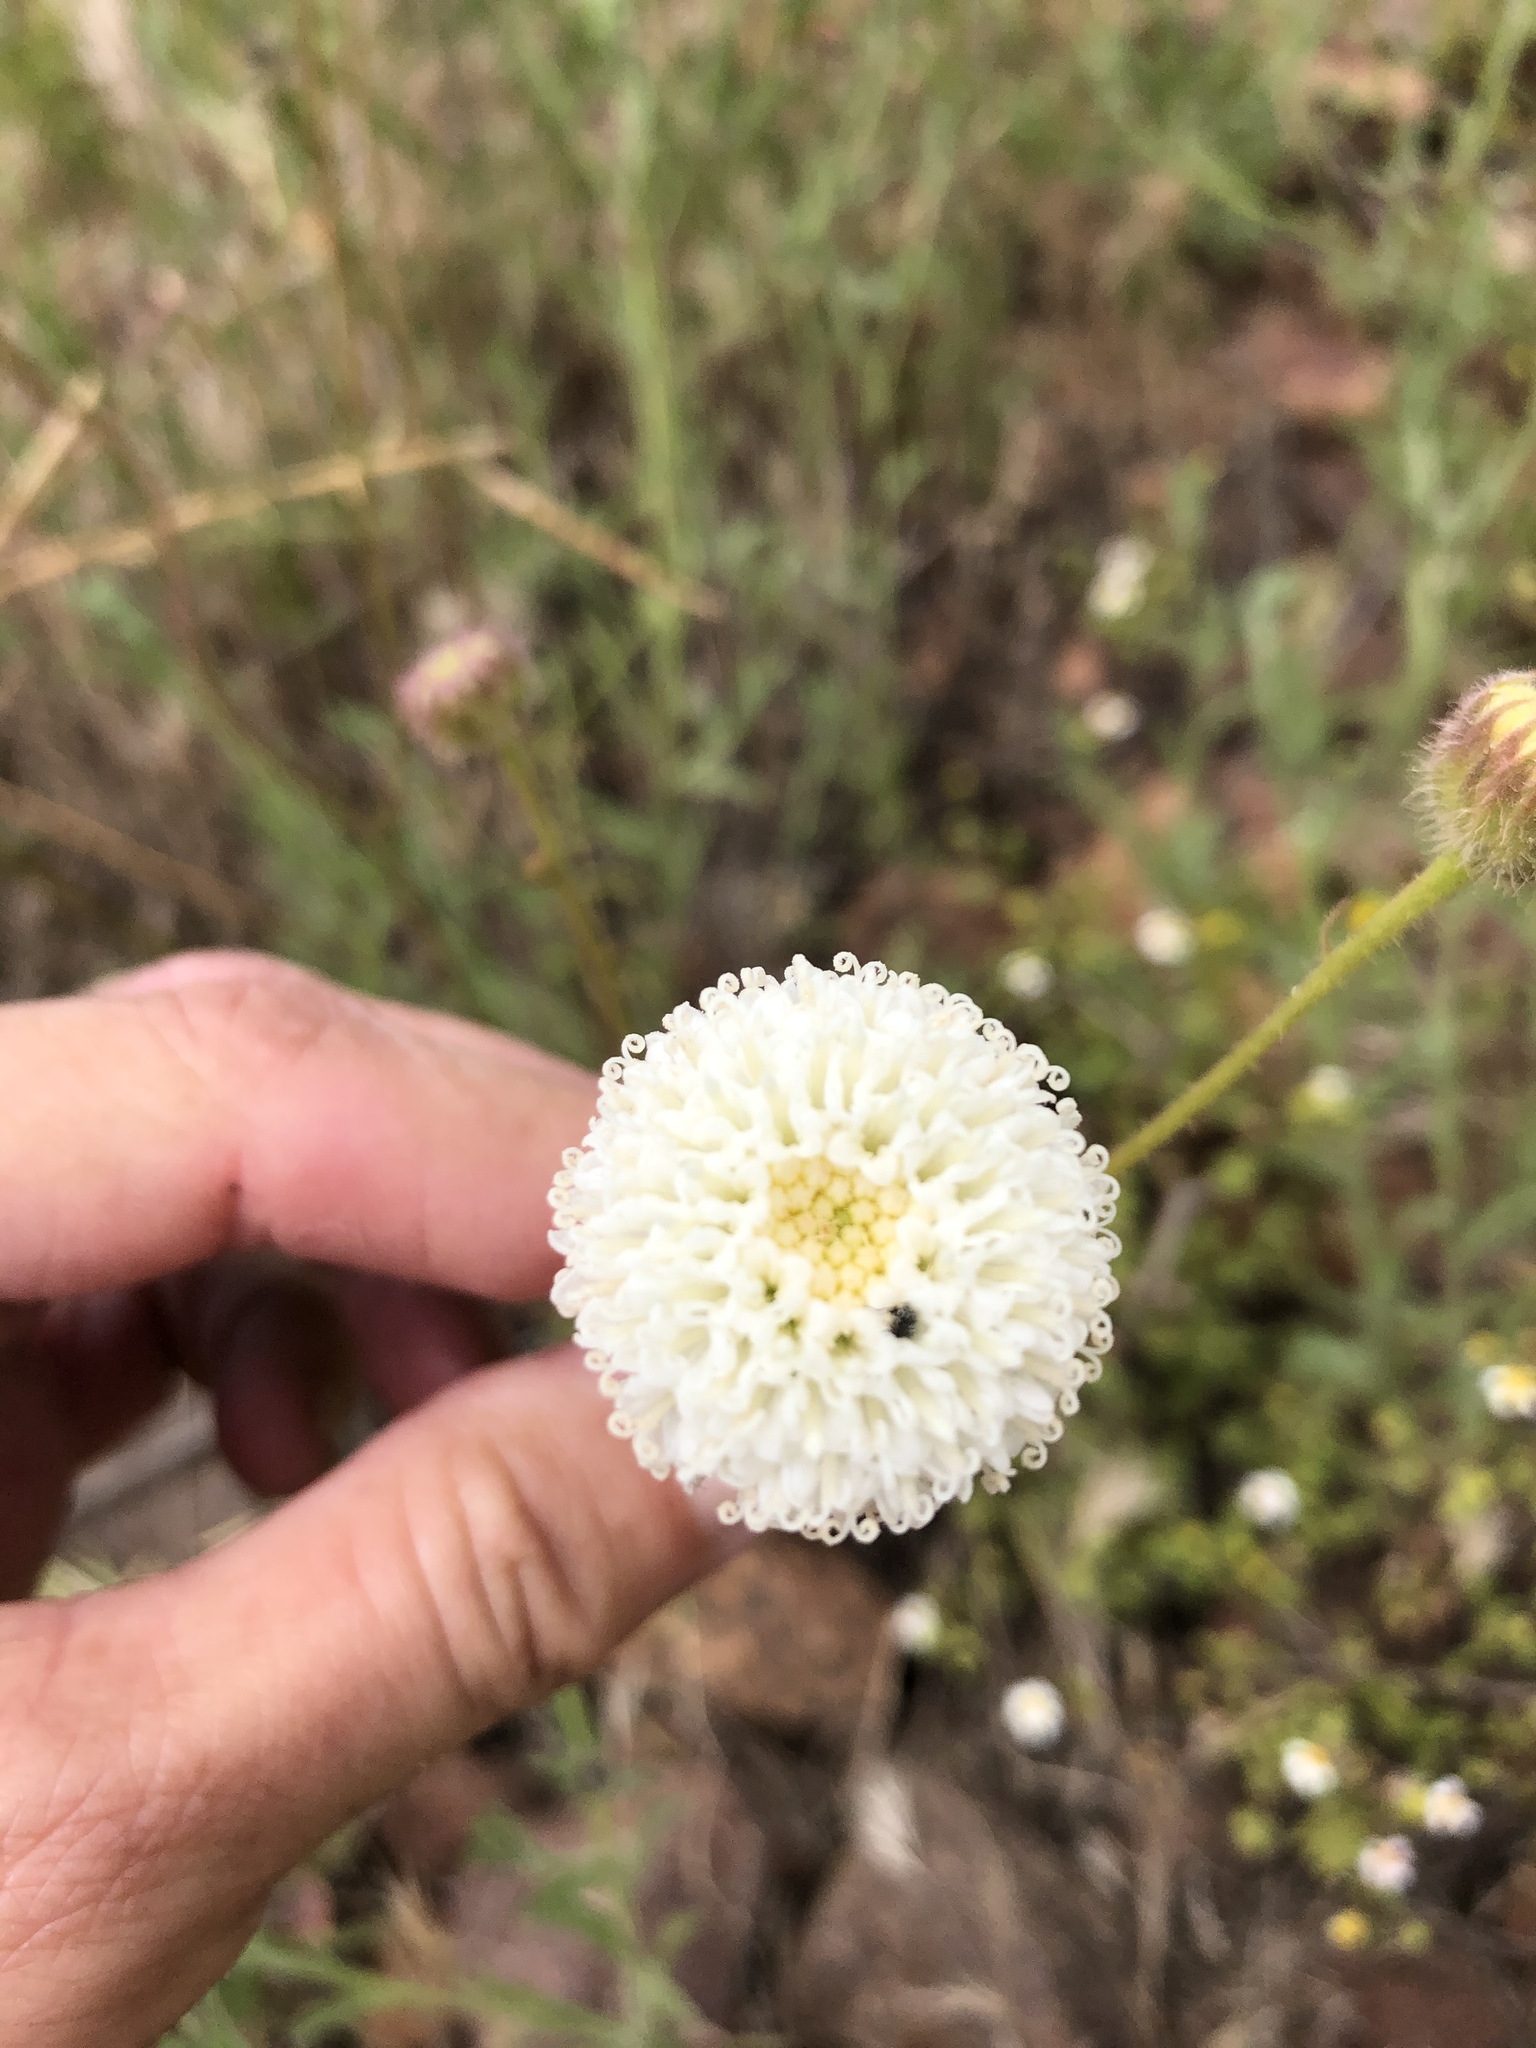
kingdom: Plantae
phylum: Tracheophyta
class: Magnoliopsida
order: Asterales
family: Asteraceae
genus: Chaenactis
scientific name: Chaenactis artemisiifolia
